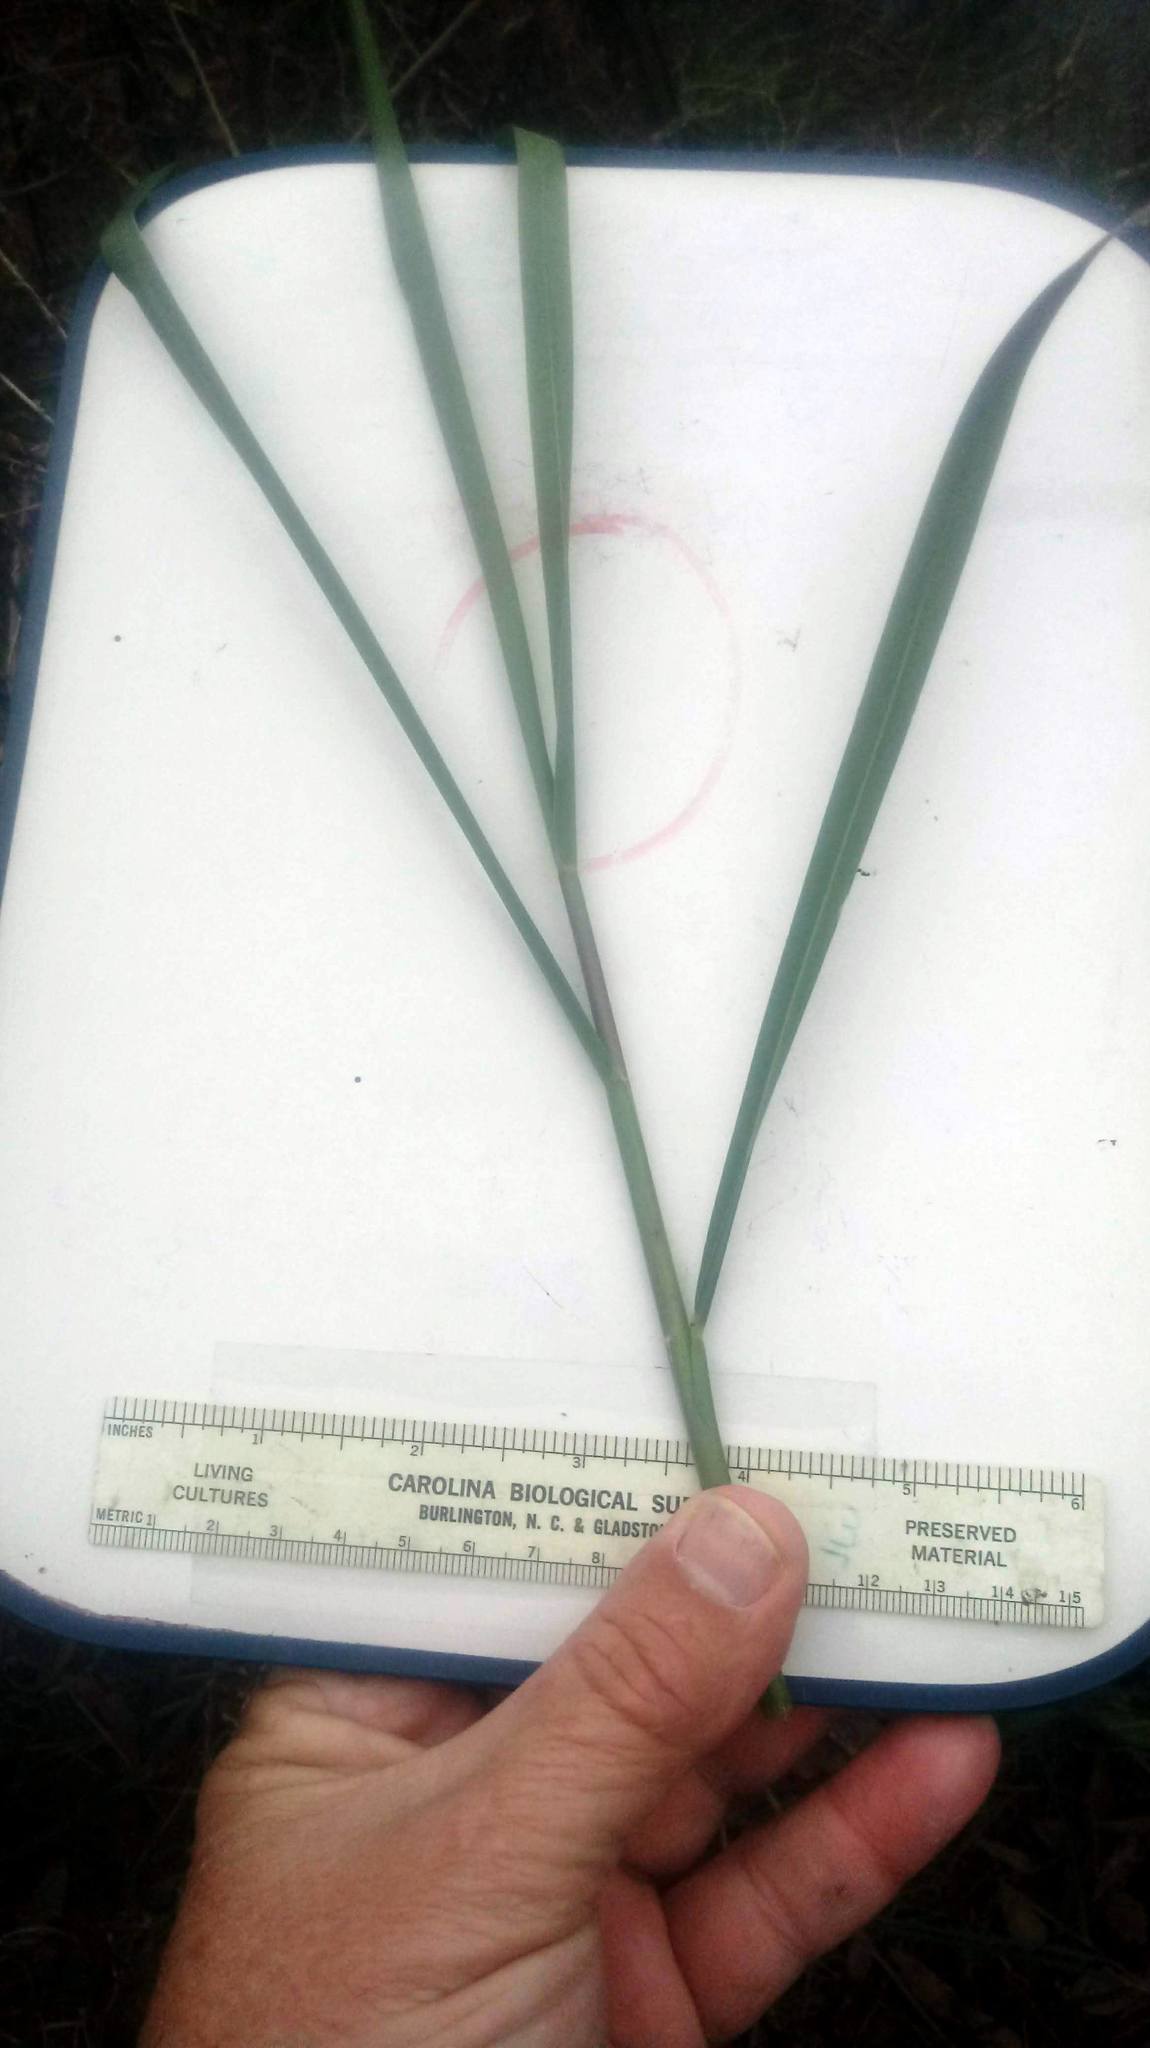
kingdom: Plantae
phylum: Tracheophyta
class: Liliopsida
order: Poales
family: Poaceae
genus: Panicum
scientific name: Panicum repens
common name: Torpedo grass
